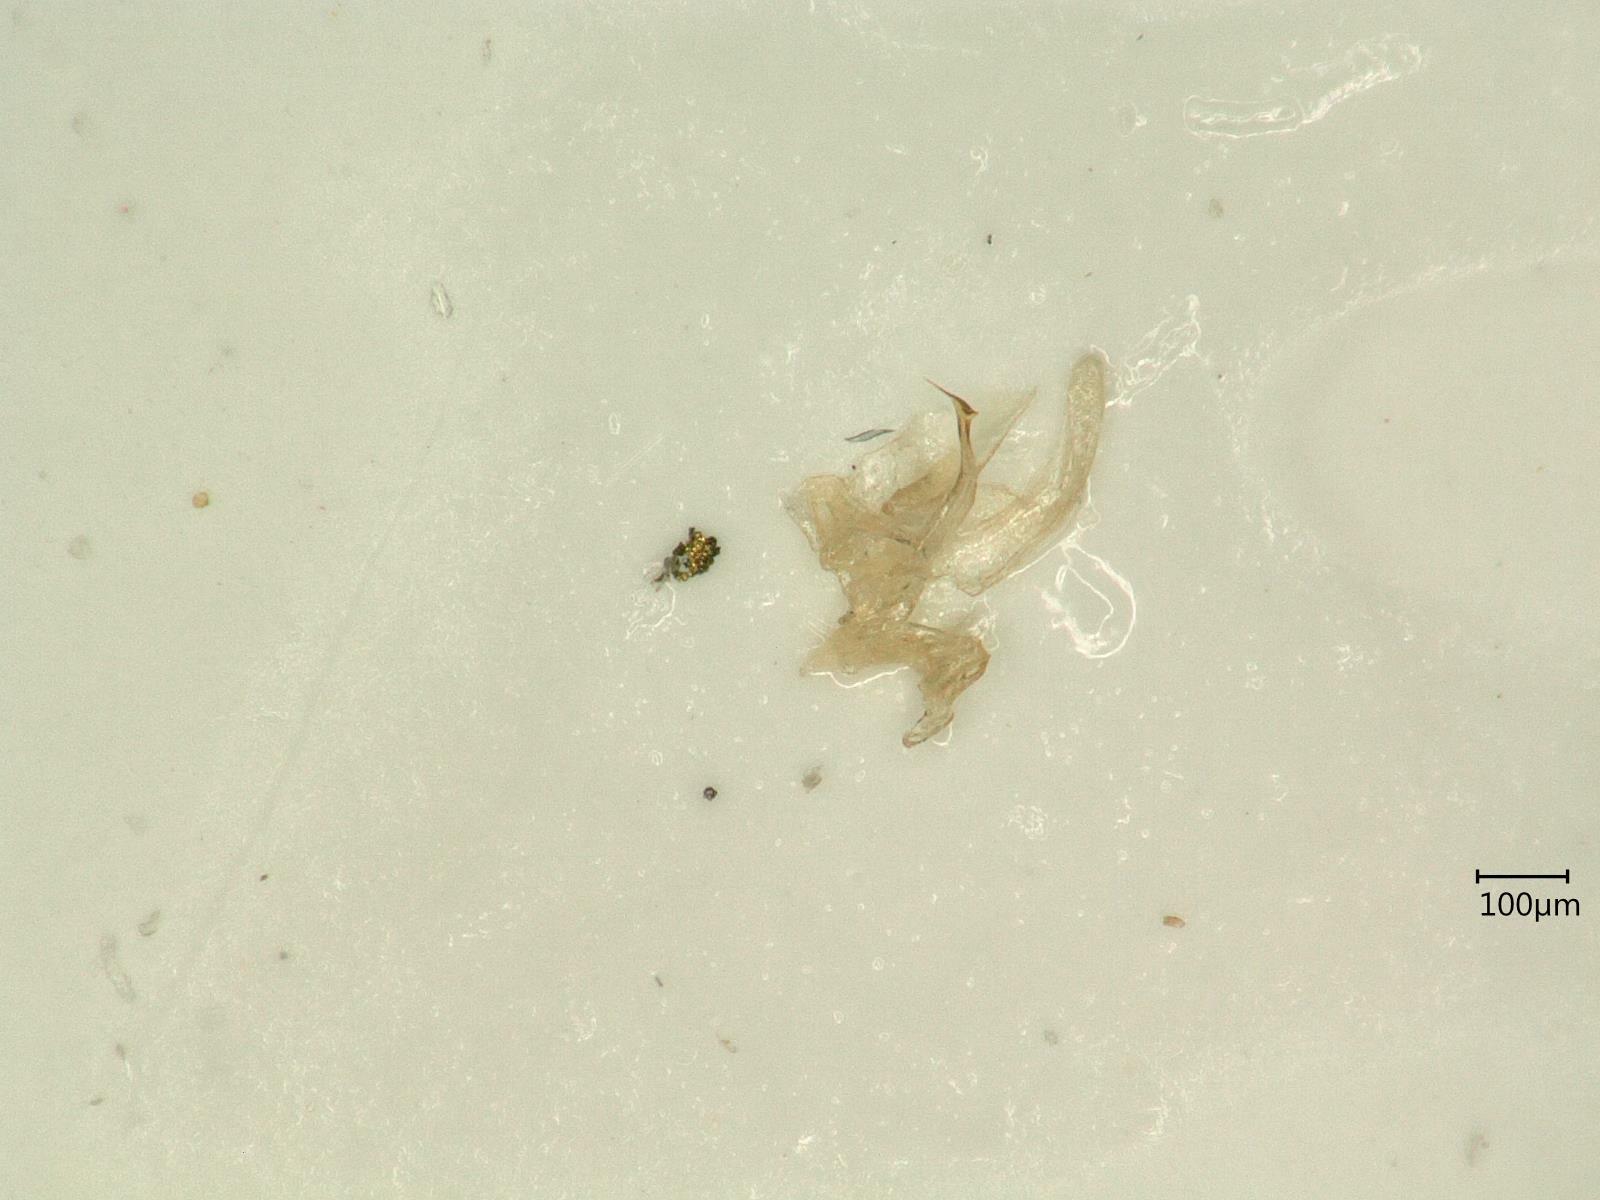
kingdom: Animalia
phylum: Arthropoda
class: Insecta
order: Hemiptera
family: Cicadellidae
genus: Ribautiana
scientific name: Ribautiana tenerrima
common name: Bramble leafhopper
